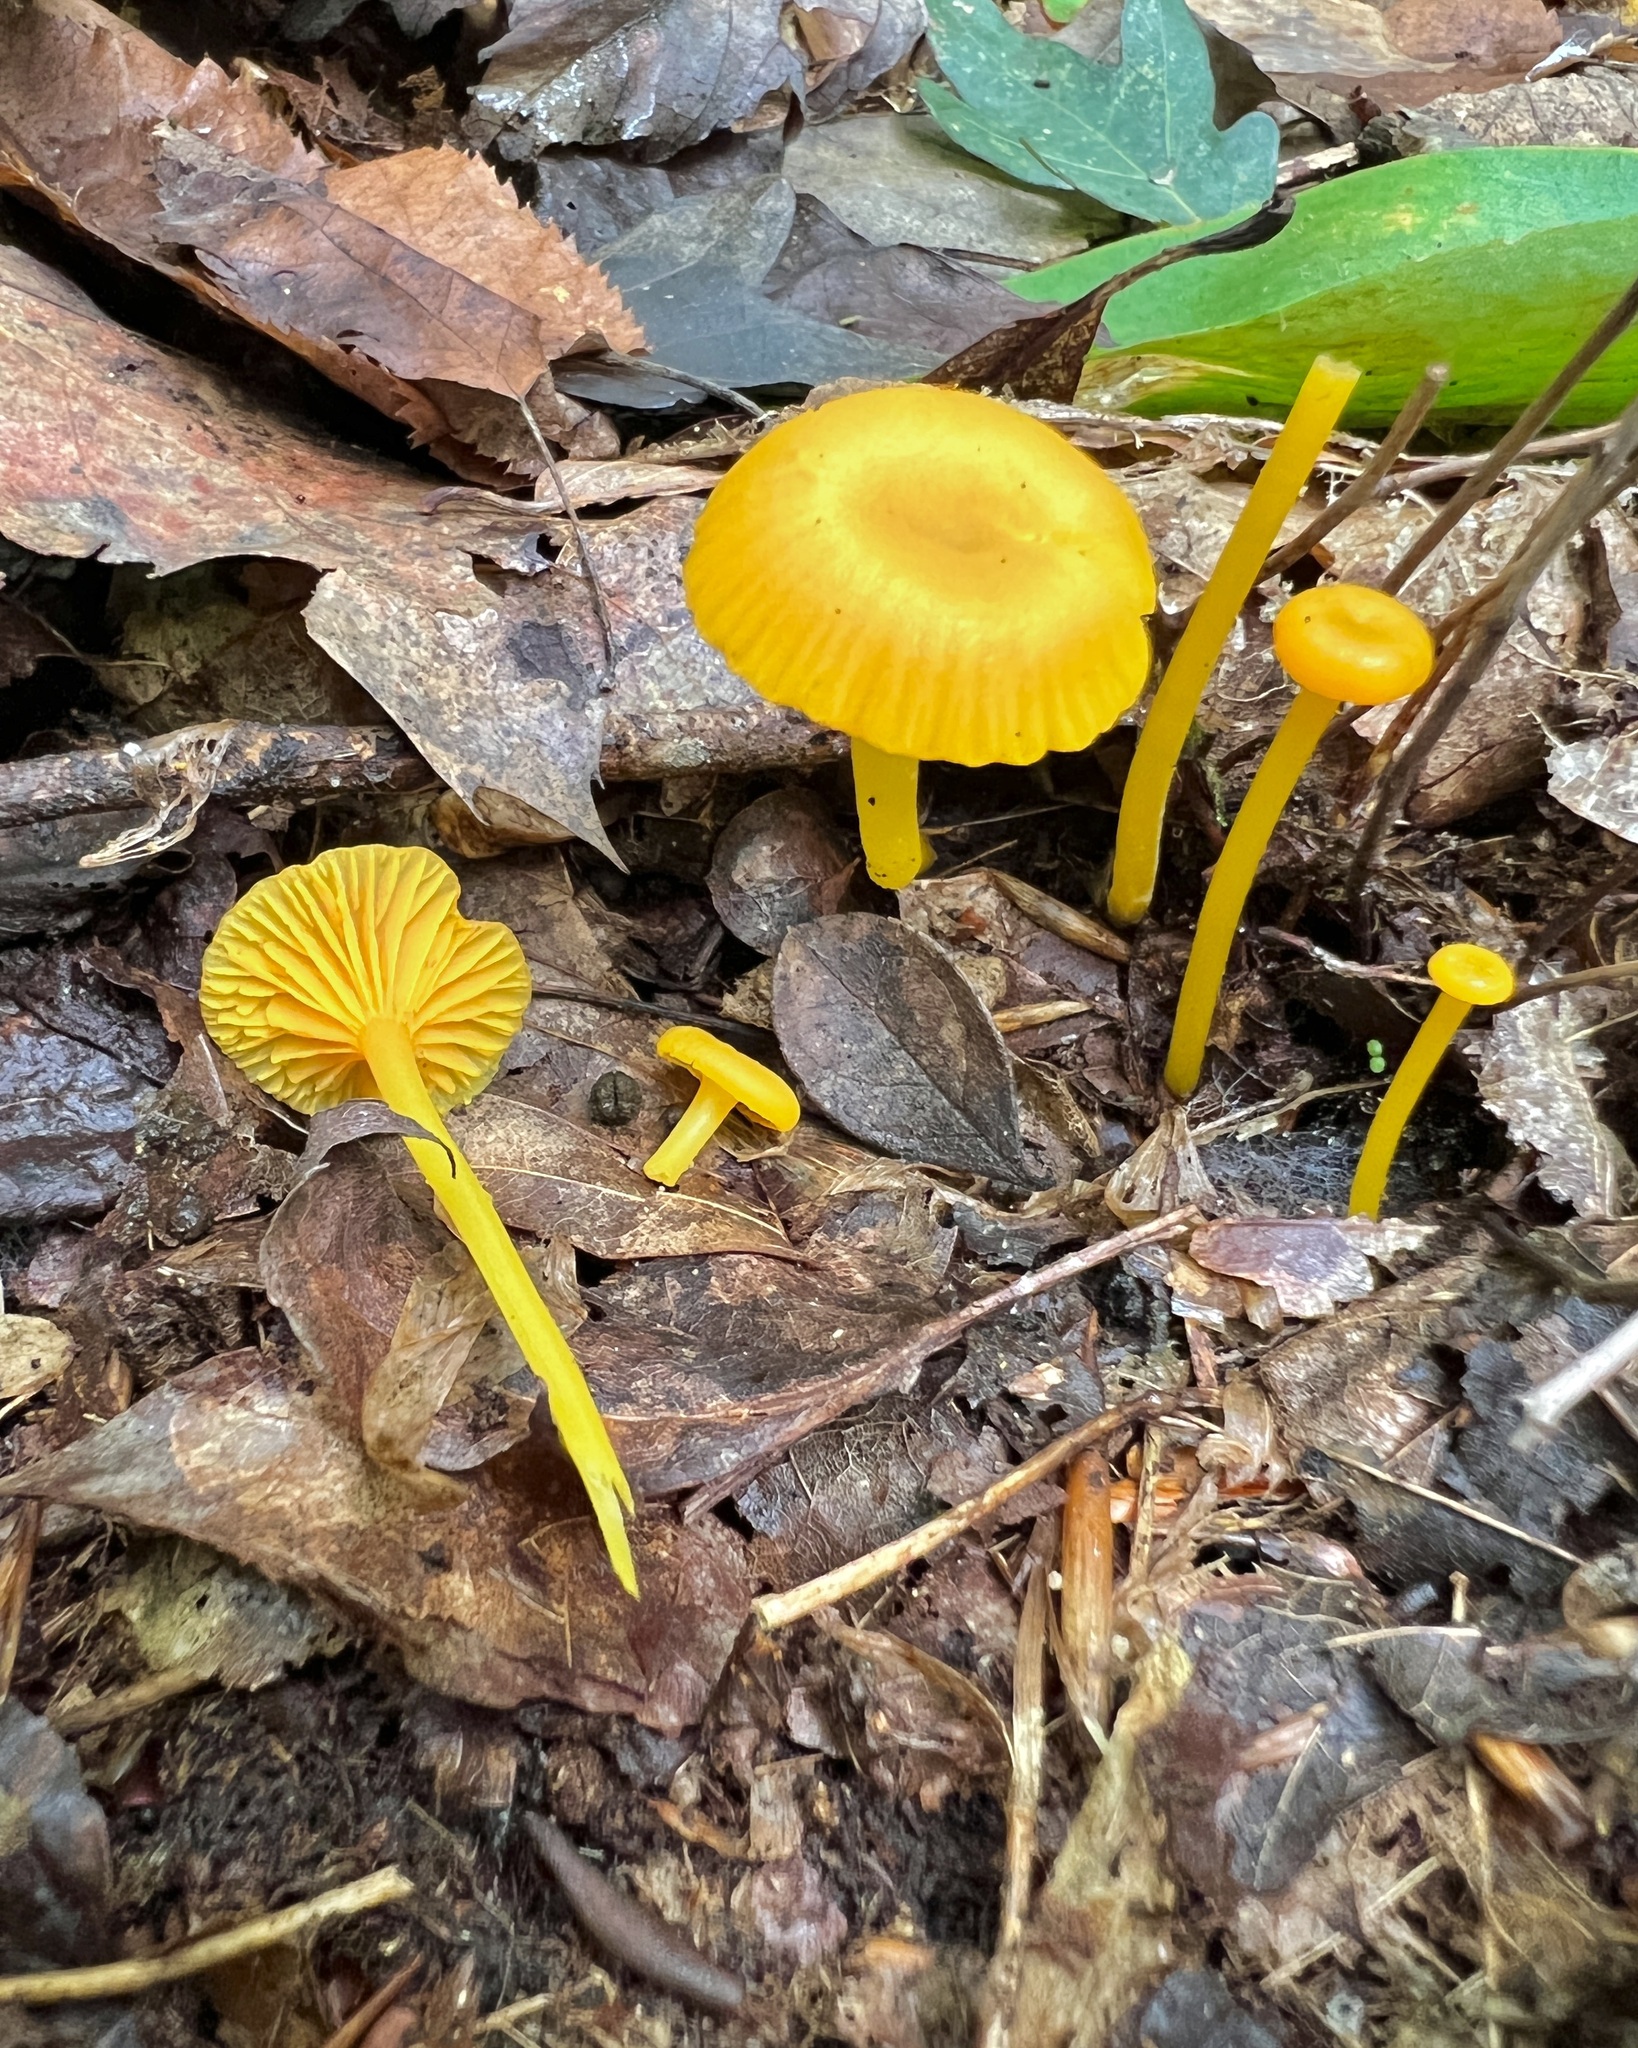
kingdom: Fungi
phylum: Basidiomycota
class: Agaricomycetes
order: Agaricales
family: Hygrophoraceae
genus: Gloioxanthomyces
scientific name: Gloioxanthomyces nitidus
